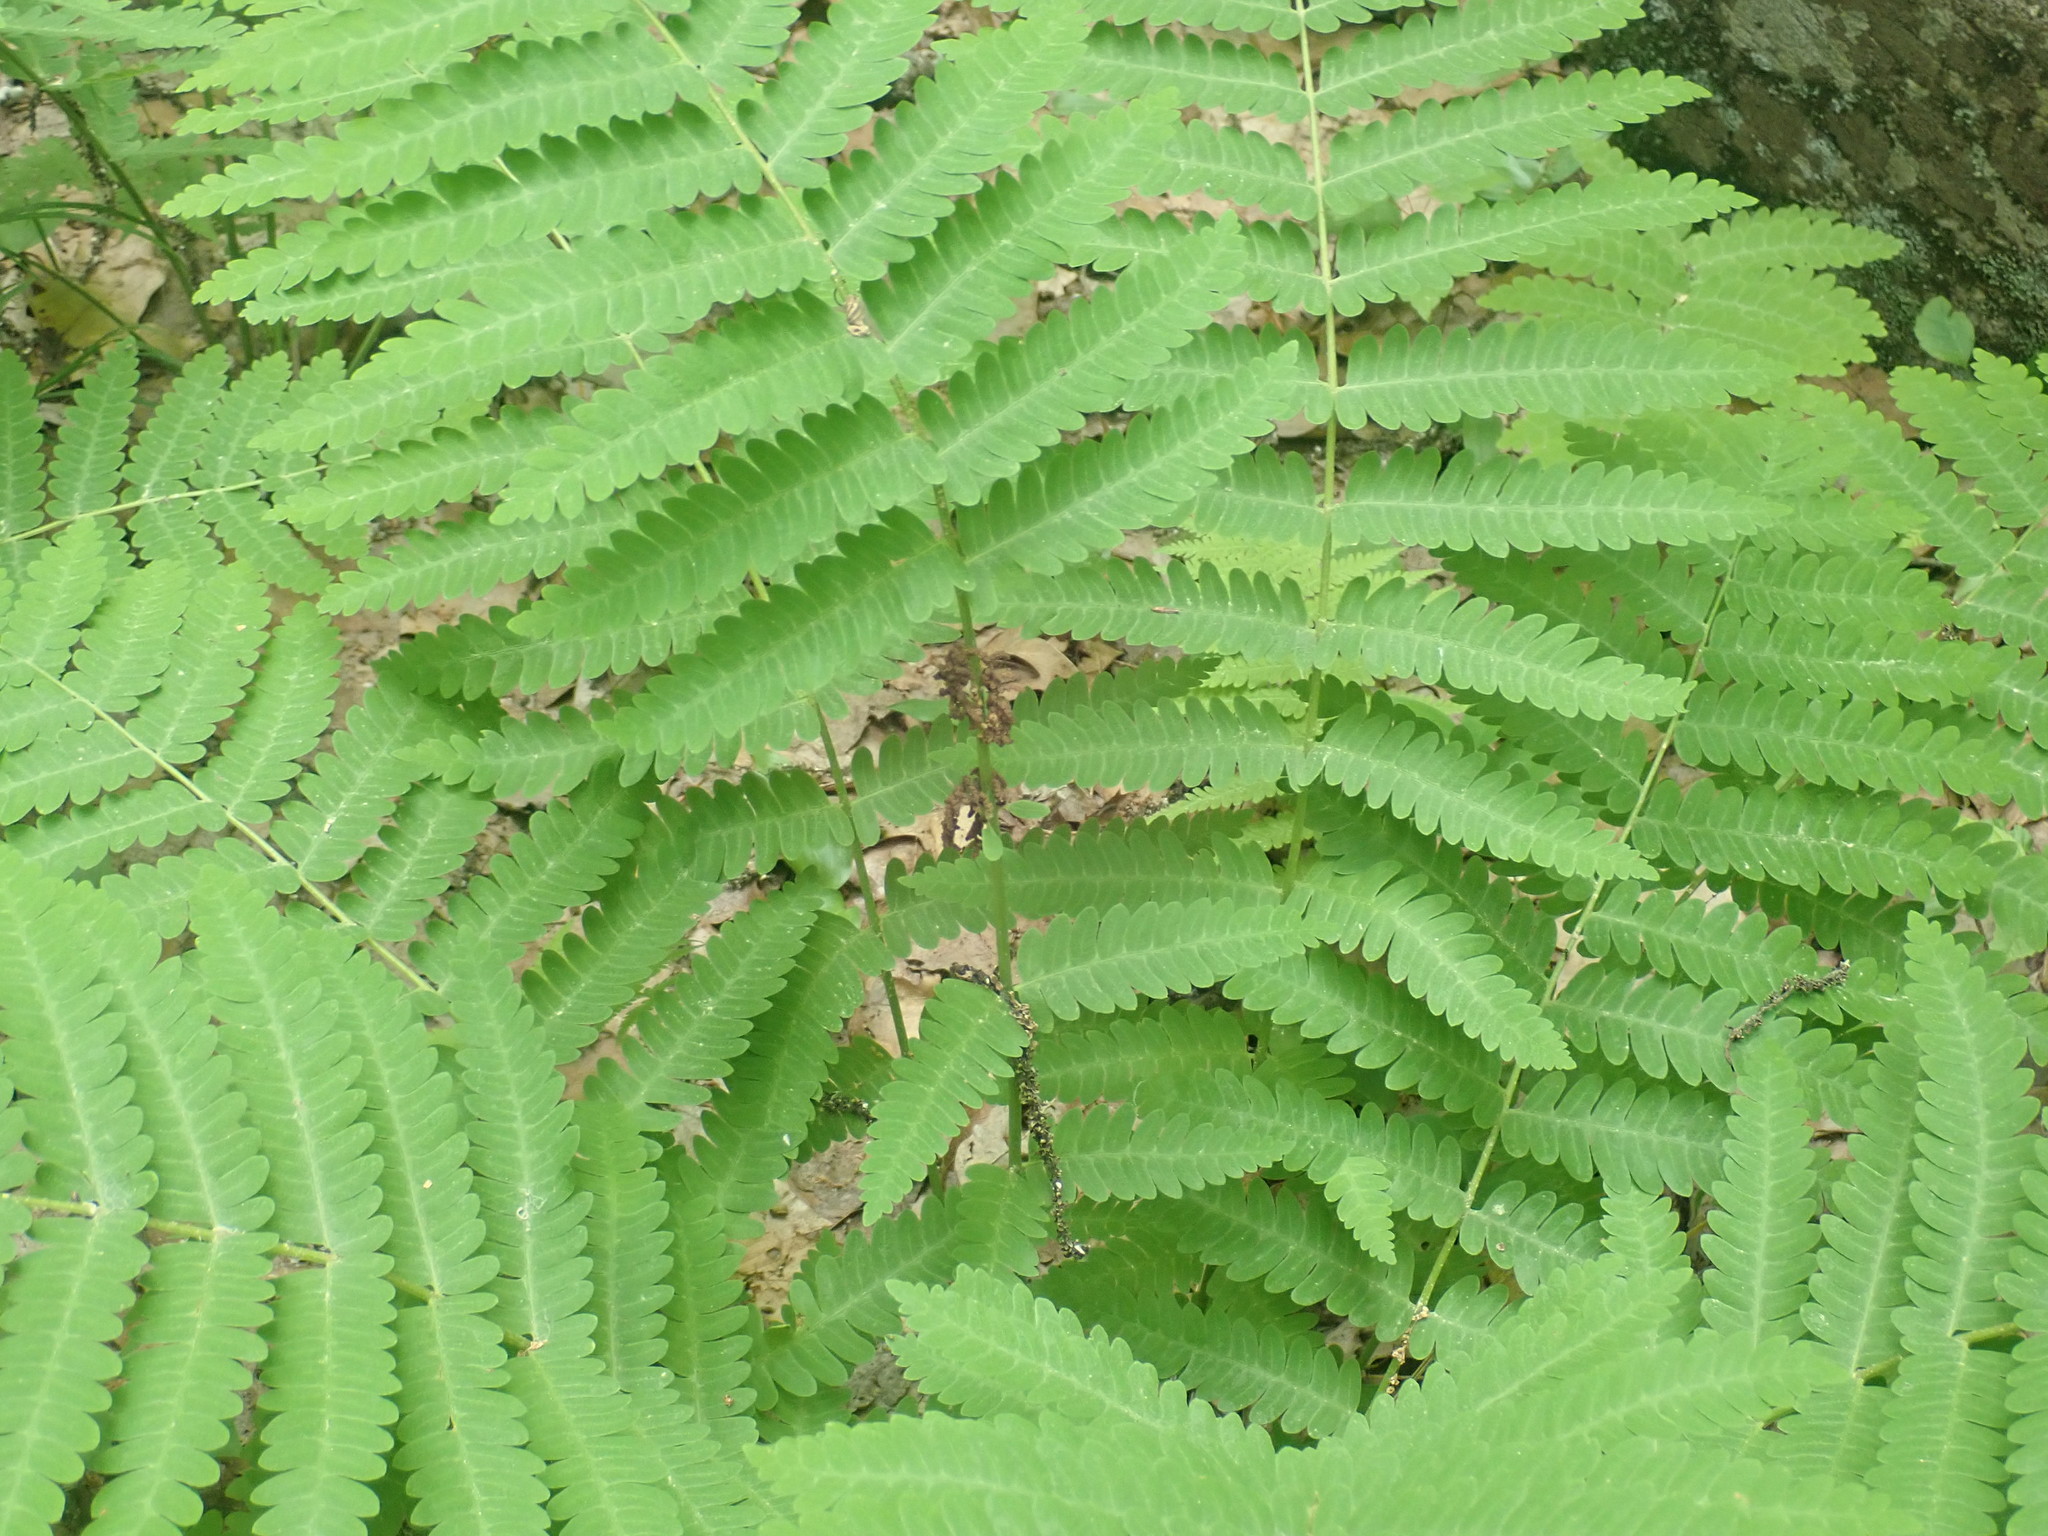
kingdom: Plantae
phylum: Tracheophyta
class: Polypodiopsida
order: Osmundales
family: Osmundaceae
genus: Claytosmunda
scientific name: Claytosmunda claytoniana
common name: Clayton's fern
